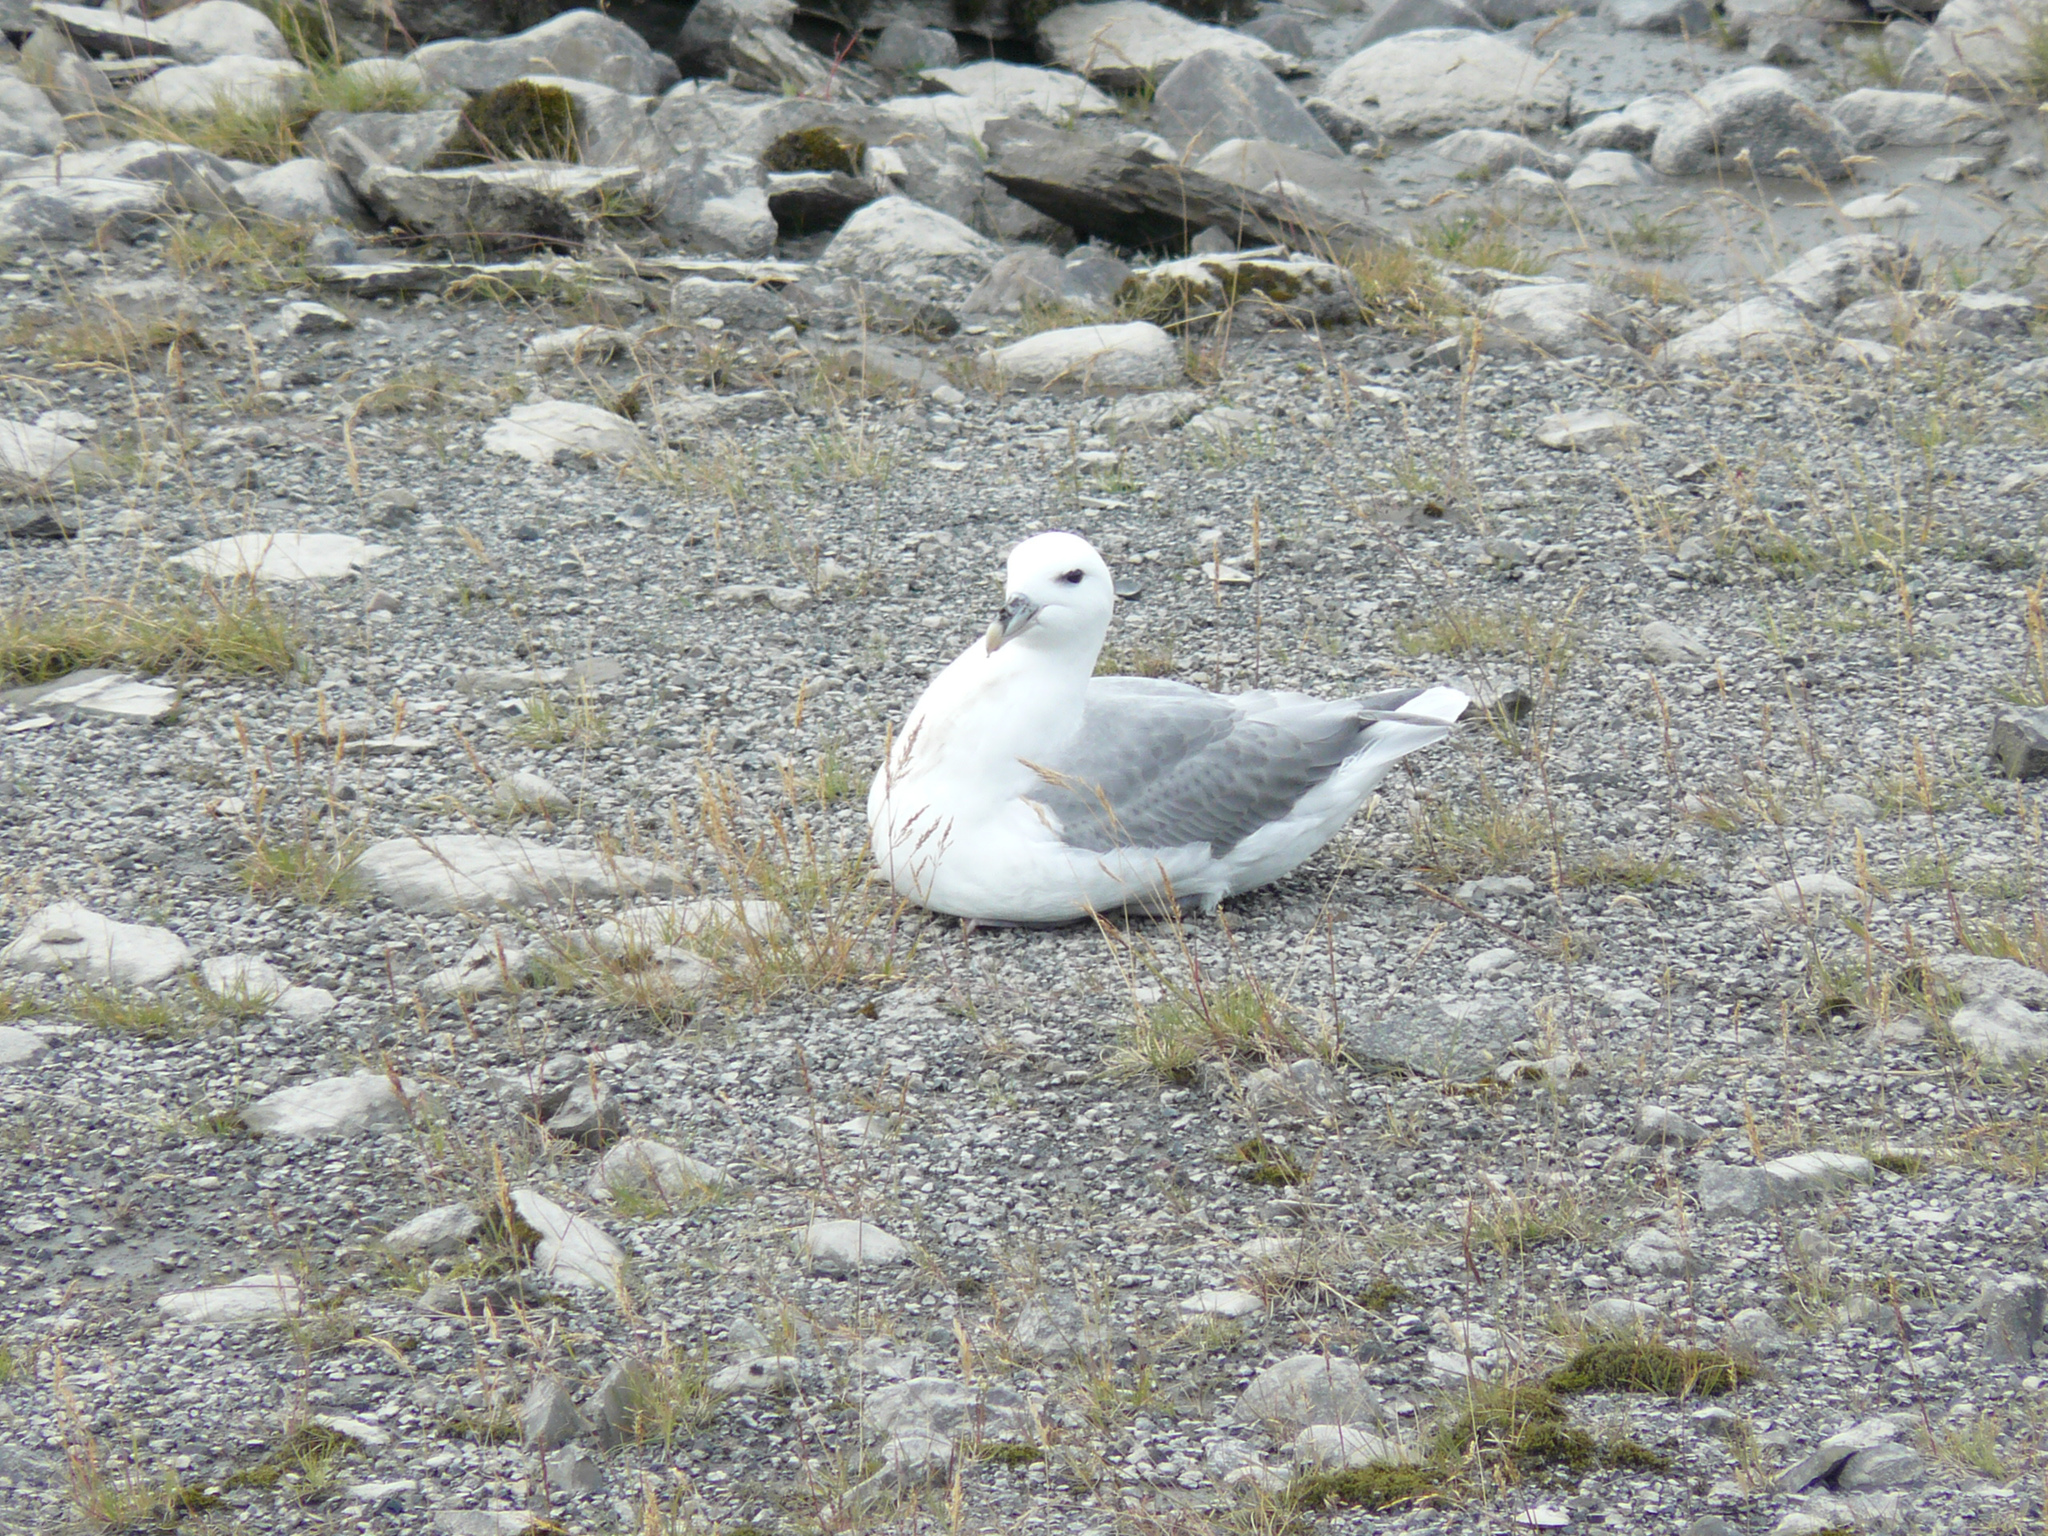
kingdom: Animalia
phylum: Chordata
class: Aves
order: Procellariiformes
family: Procellariidae
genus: Fulmarus
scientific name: Fulmarus glacialis
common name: Northern fulmar
